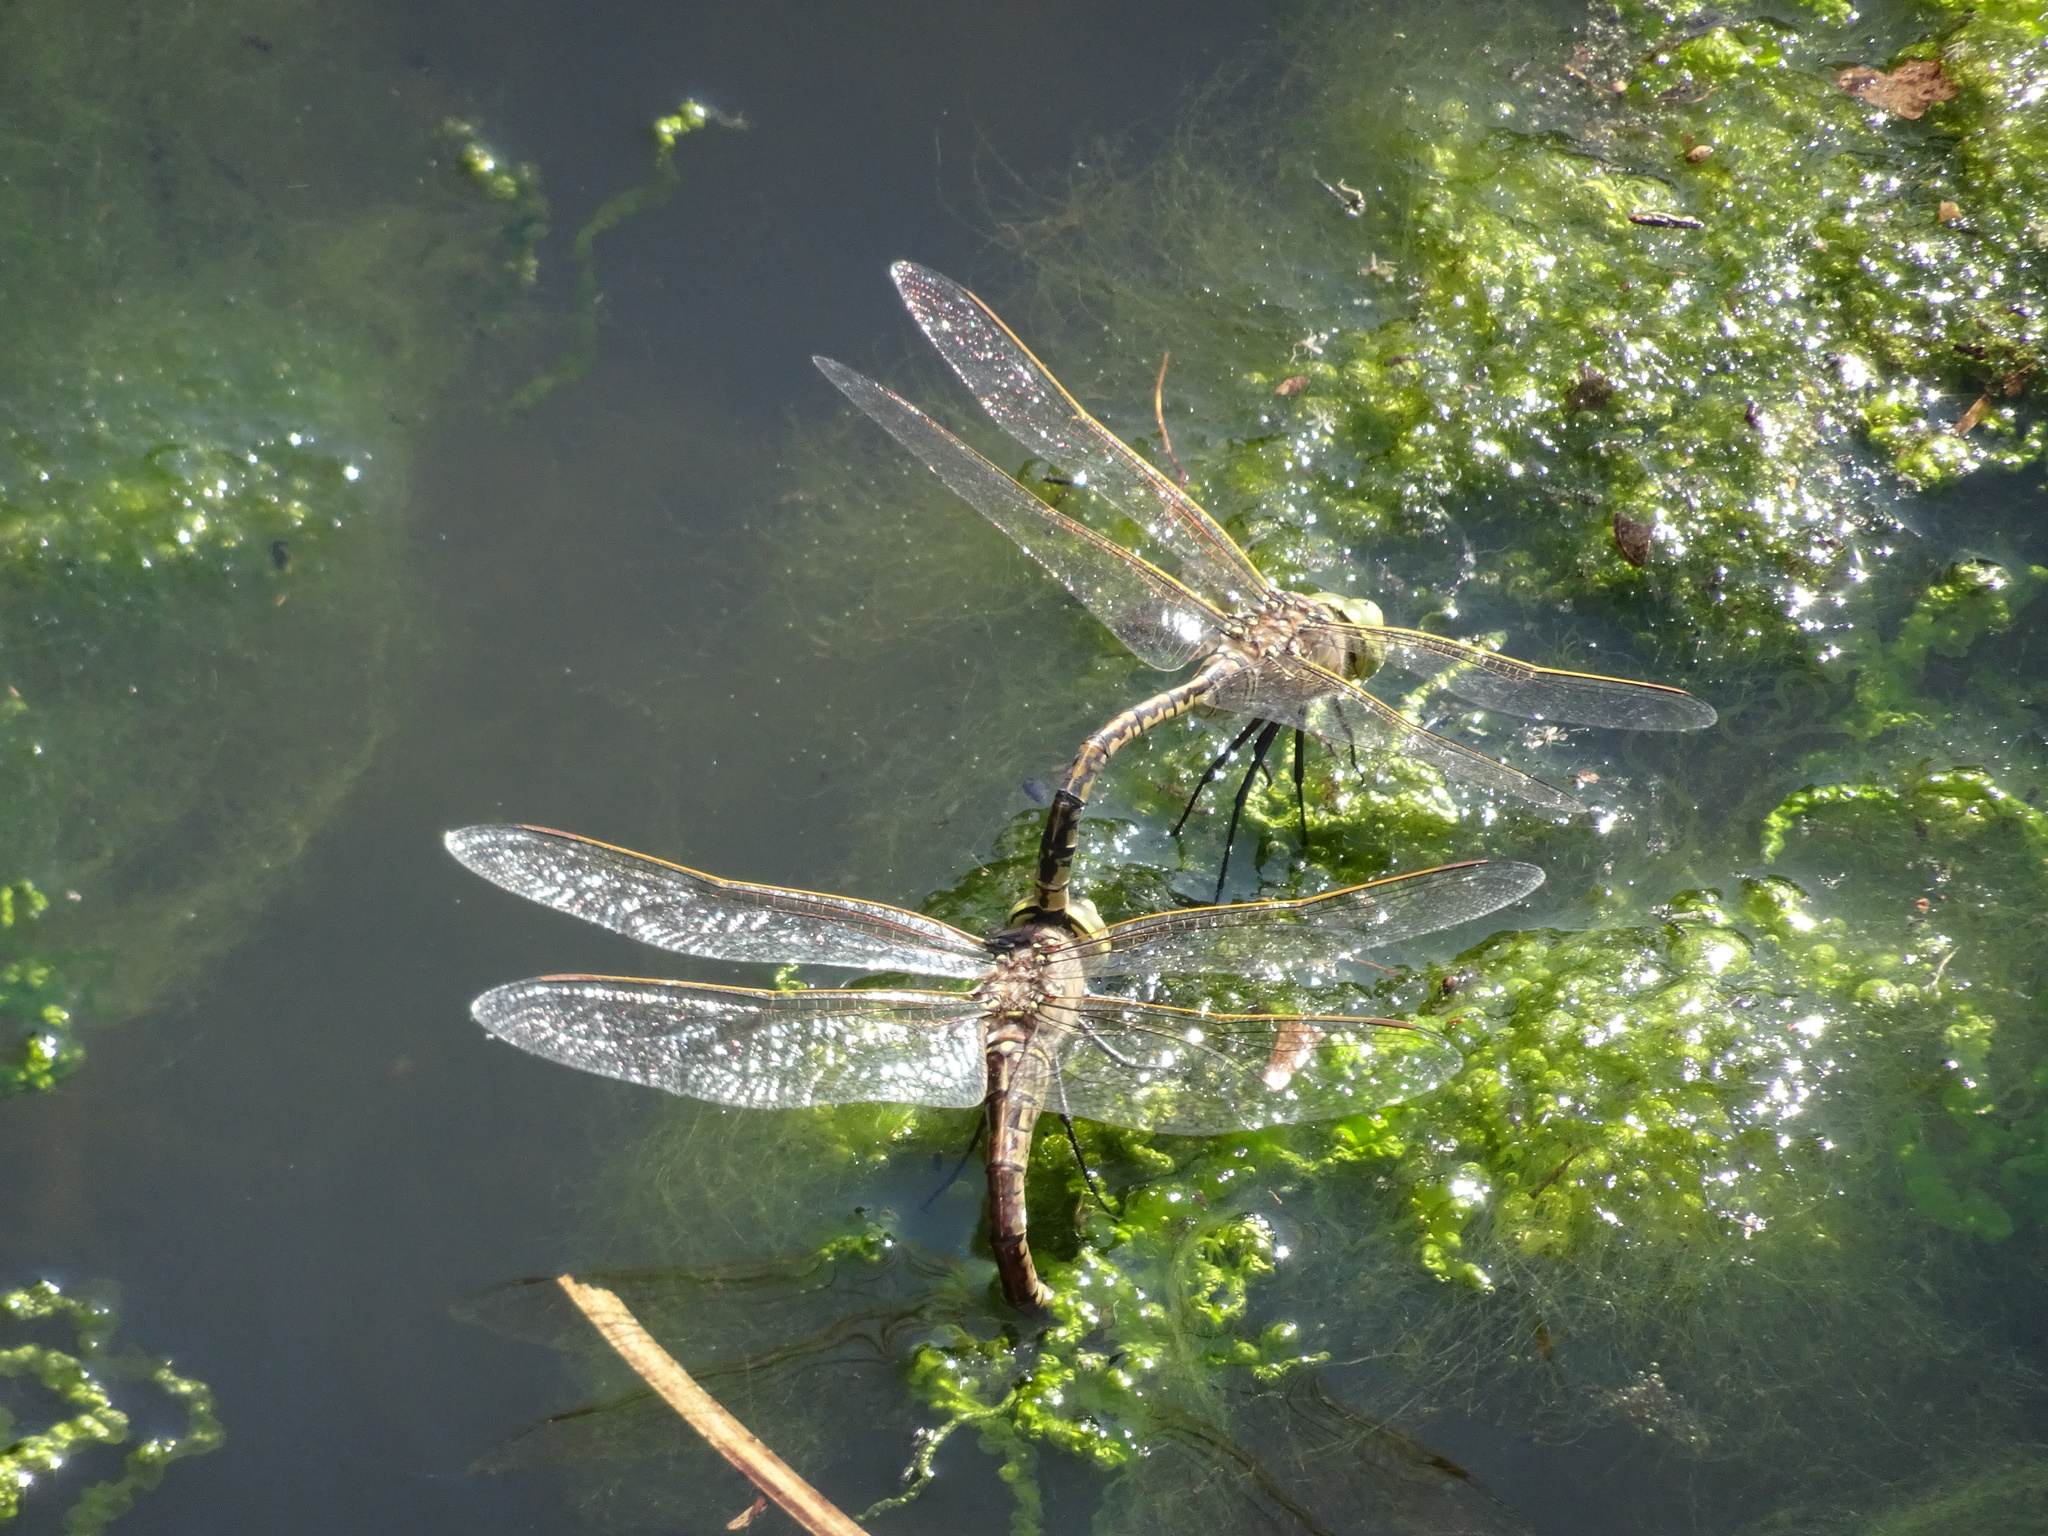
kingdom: Animalia
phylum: Arthropoda
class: Insecta
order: Odonata
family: Aeshnidae
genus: Anax
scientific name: Anax papuensis
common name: Australian emperor
